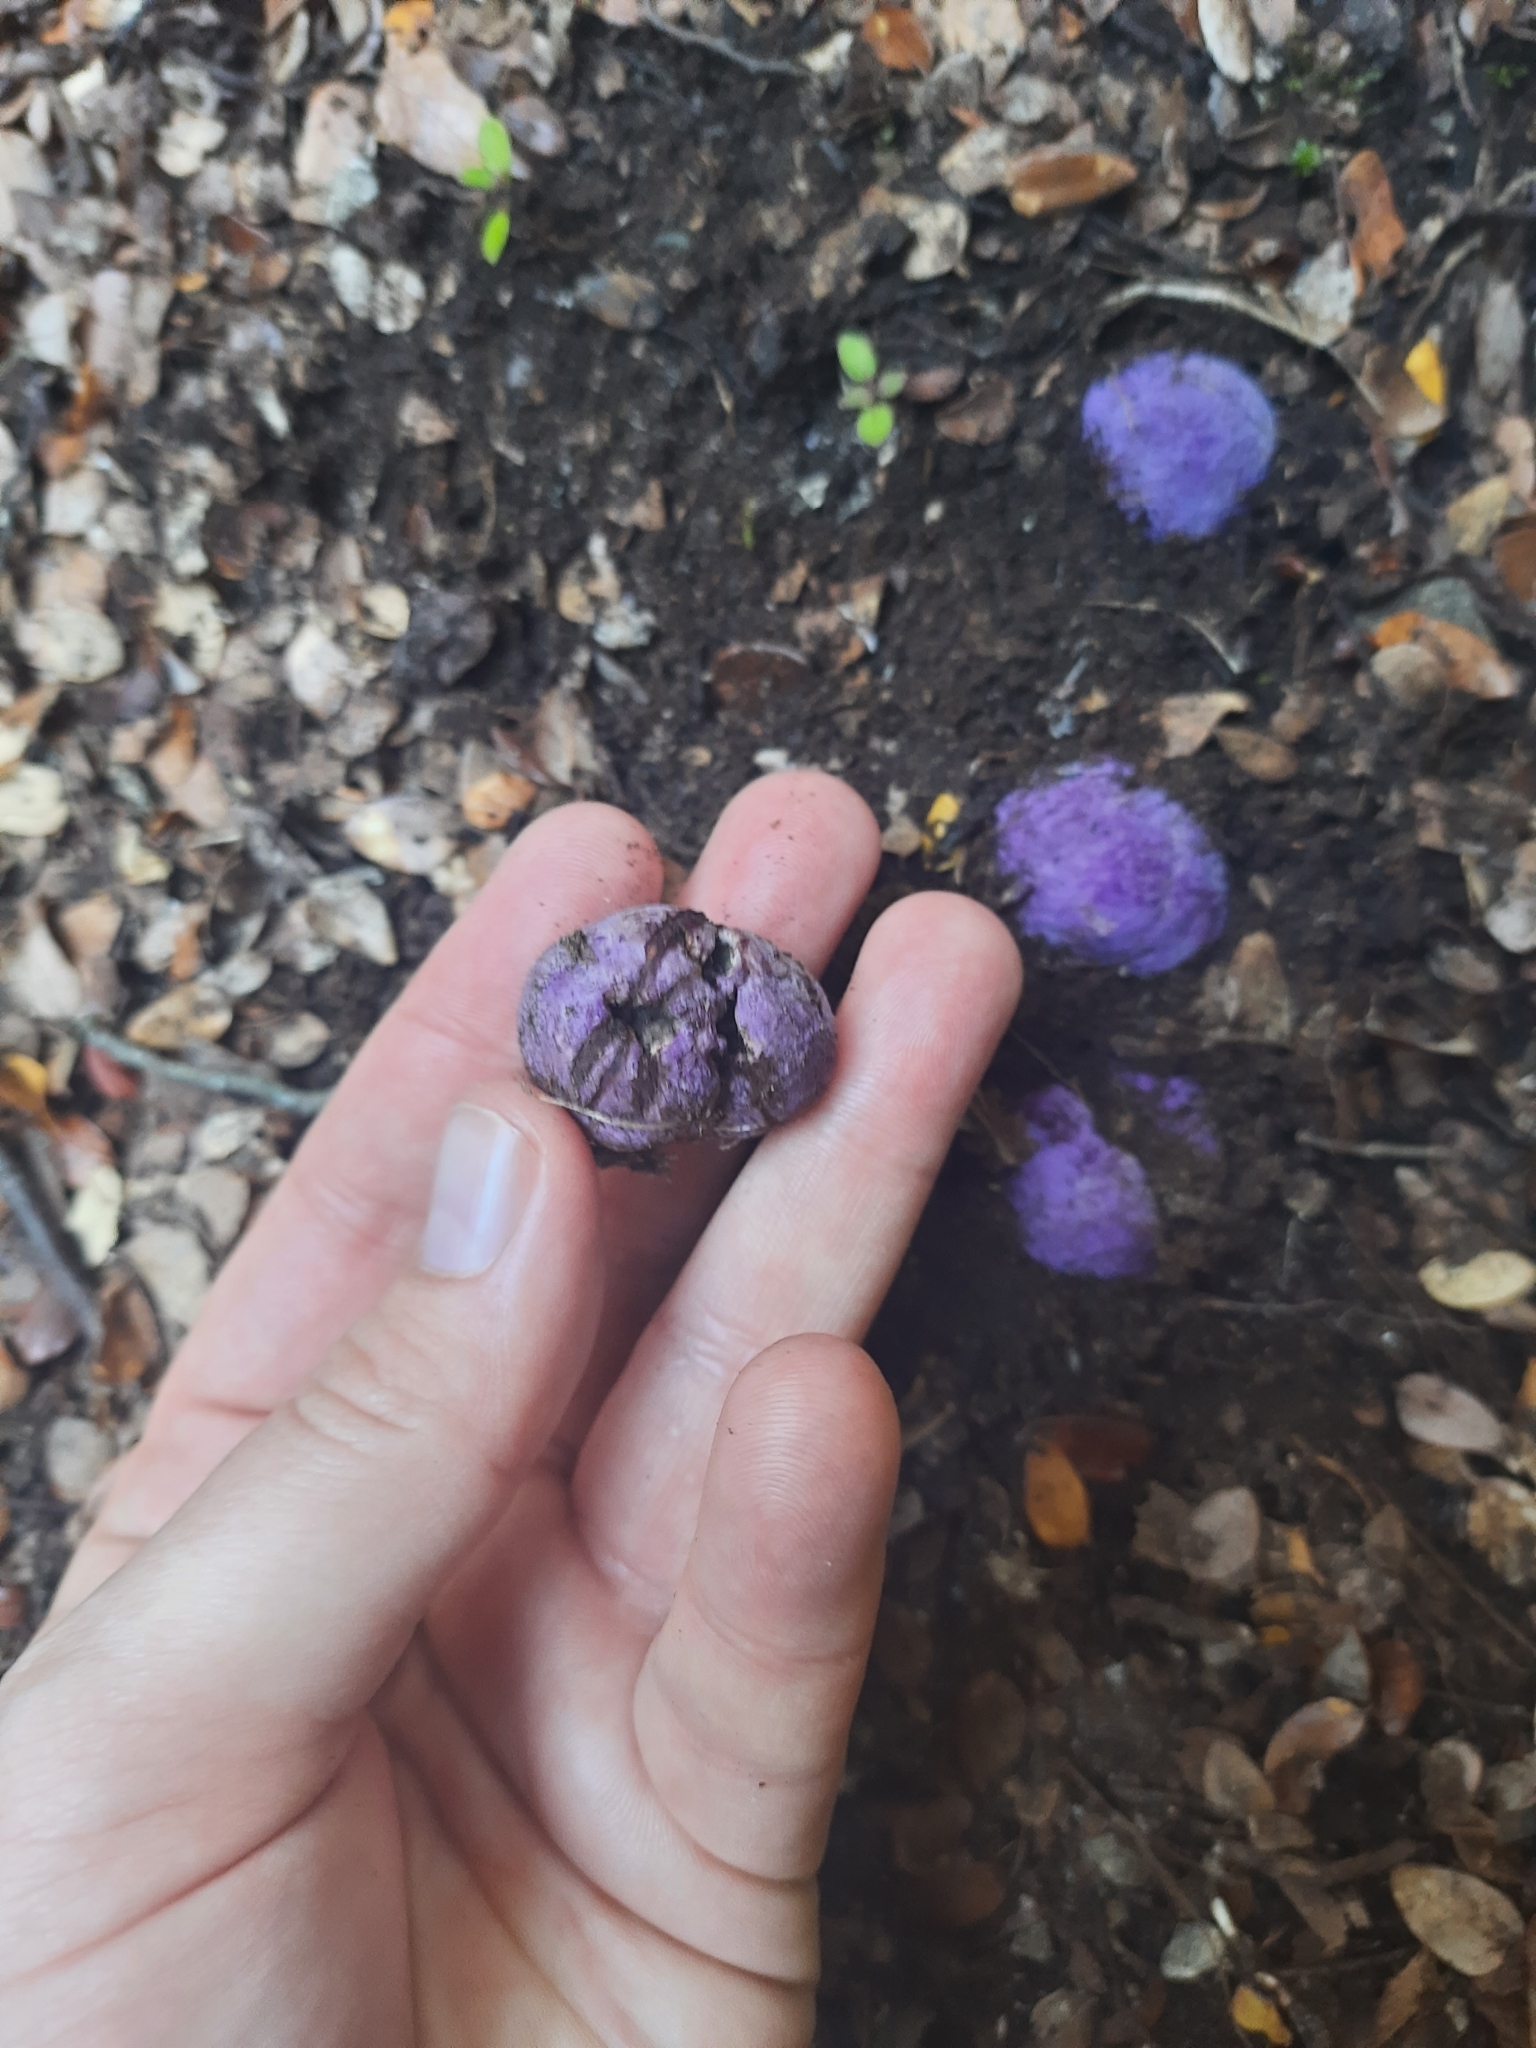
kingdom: Fungi
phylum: Basidiomycota
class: Agaricomycetes
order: Hysterangiales
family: Gallaceaceae
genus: Gallacea
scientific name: Gallacea scleroderma
